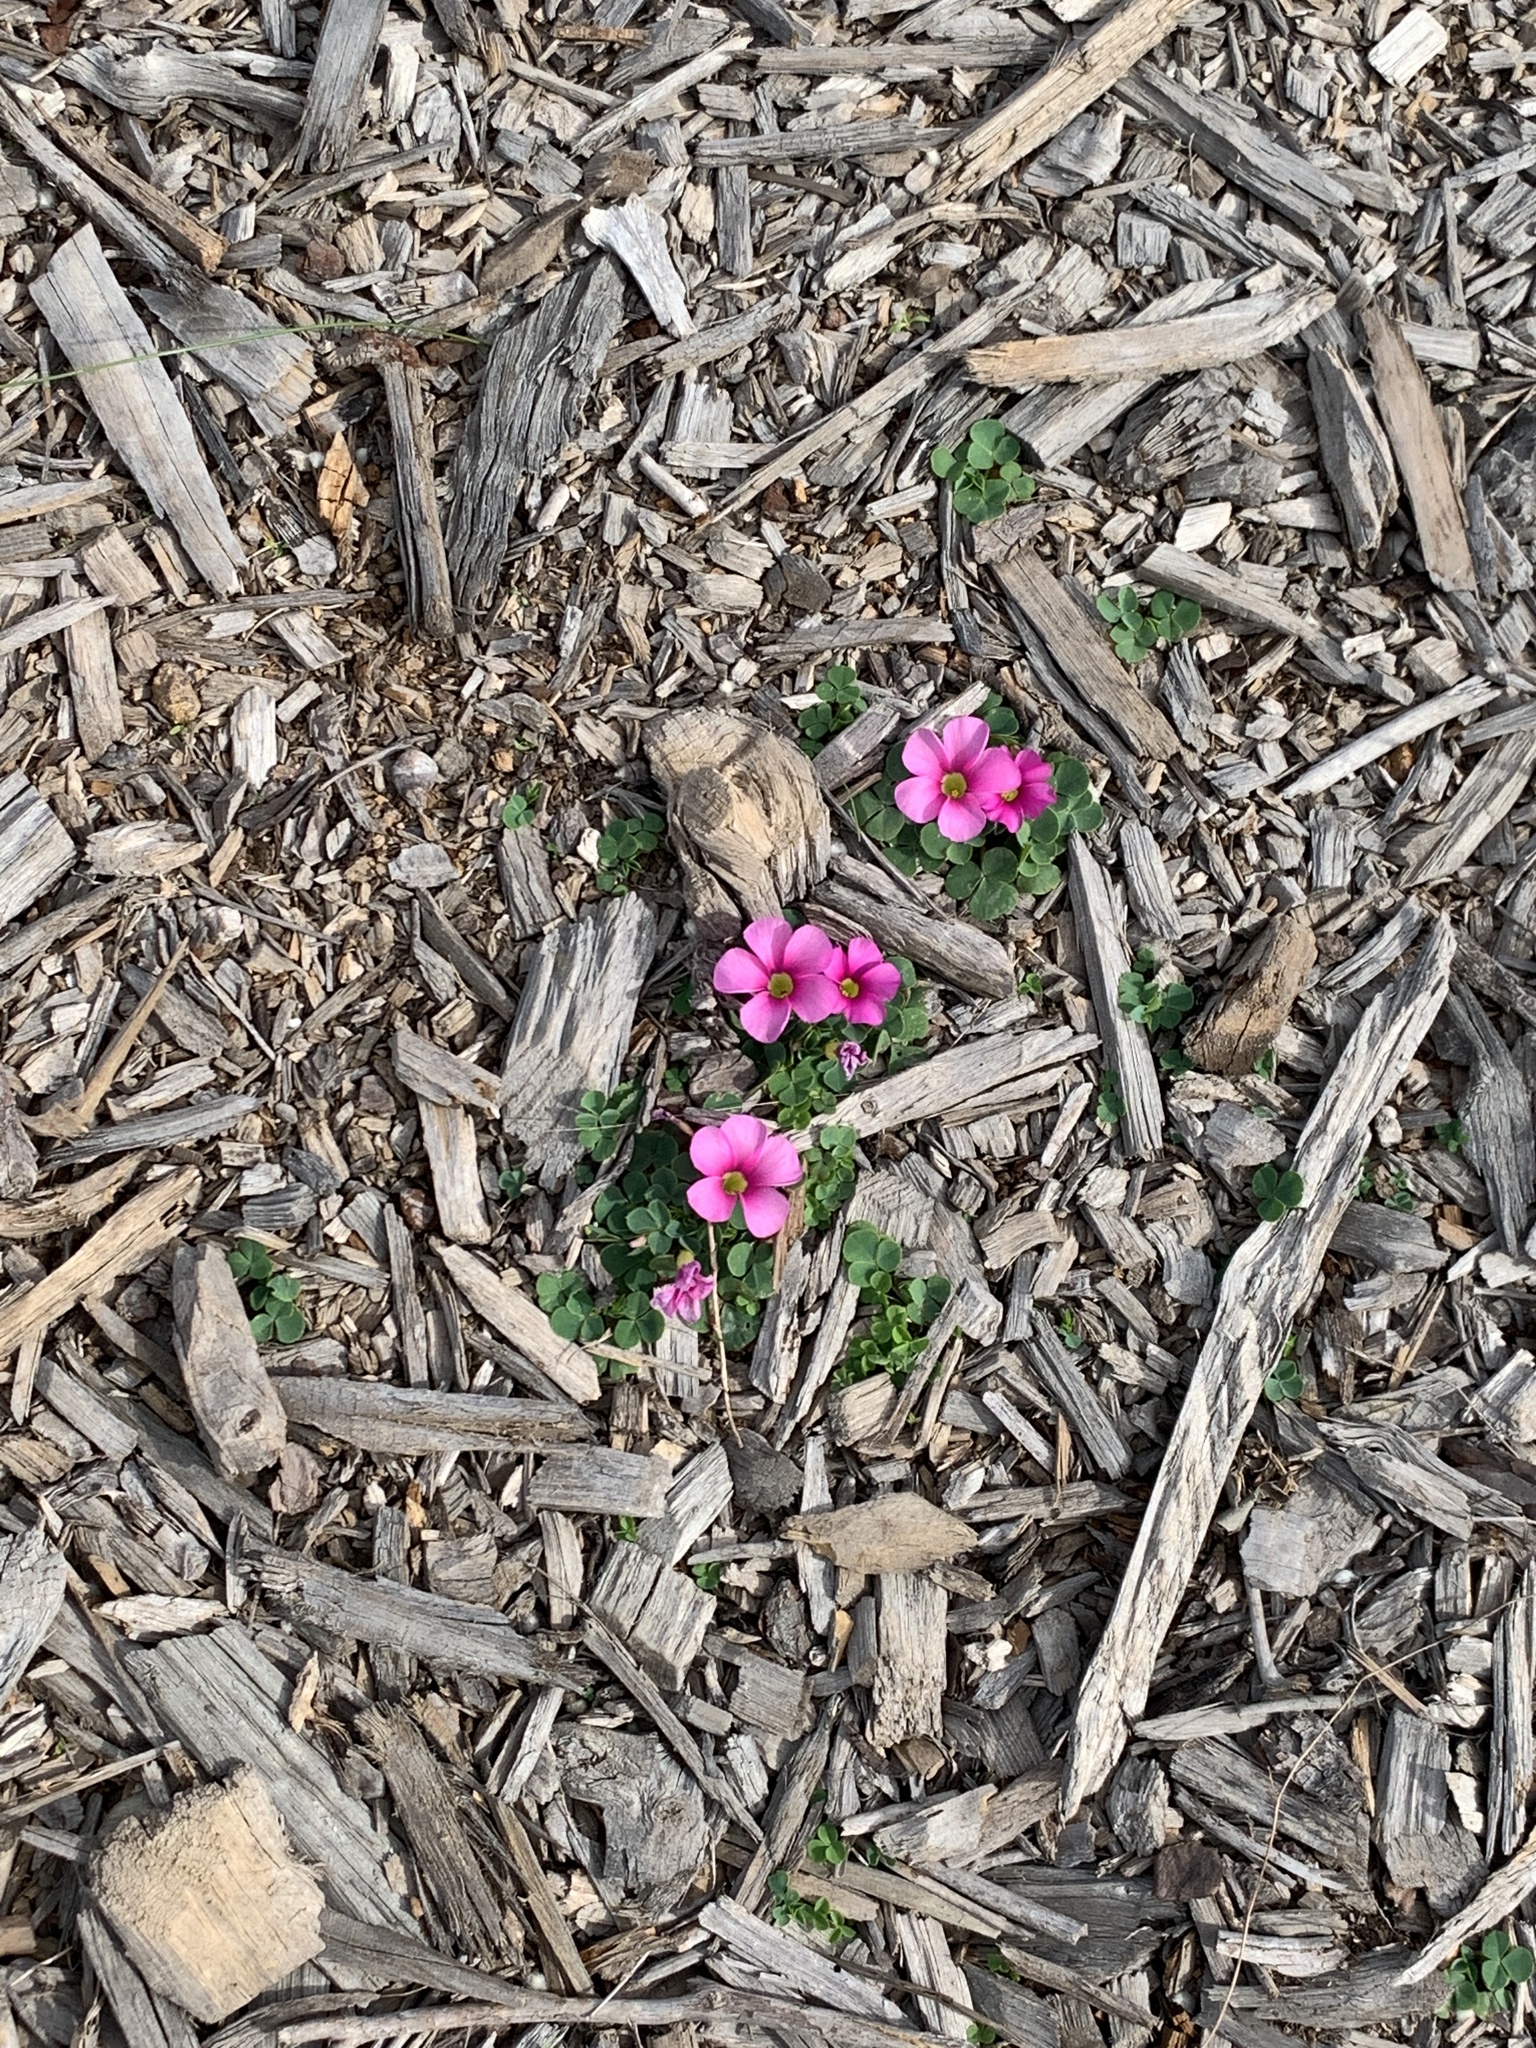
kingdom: Plantae
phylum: Tracheophyta
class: Magnoliopsida
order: Oxalidales
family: Oxalidaceae
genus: Oxalis
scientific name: Oxalis purpurea
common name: Purple woodsorrel
